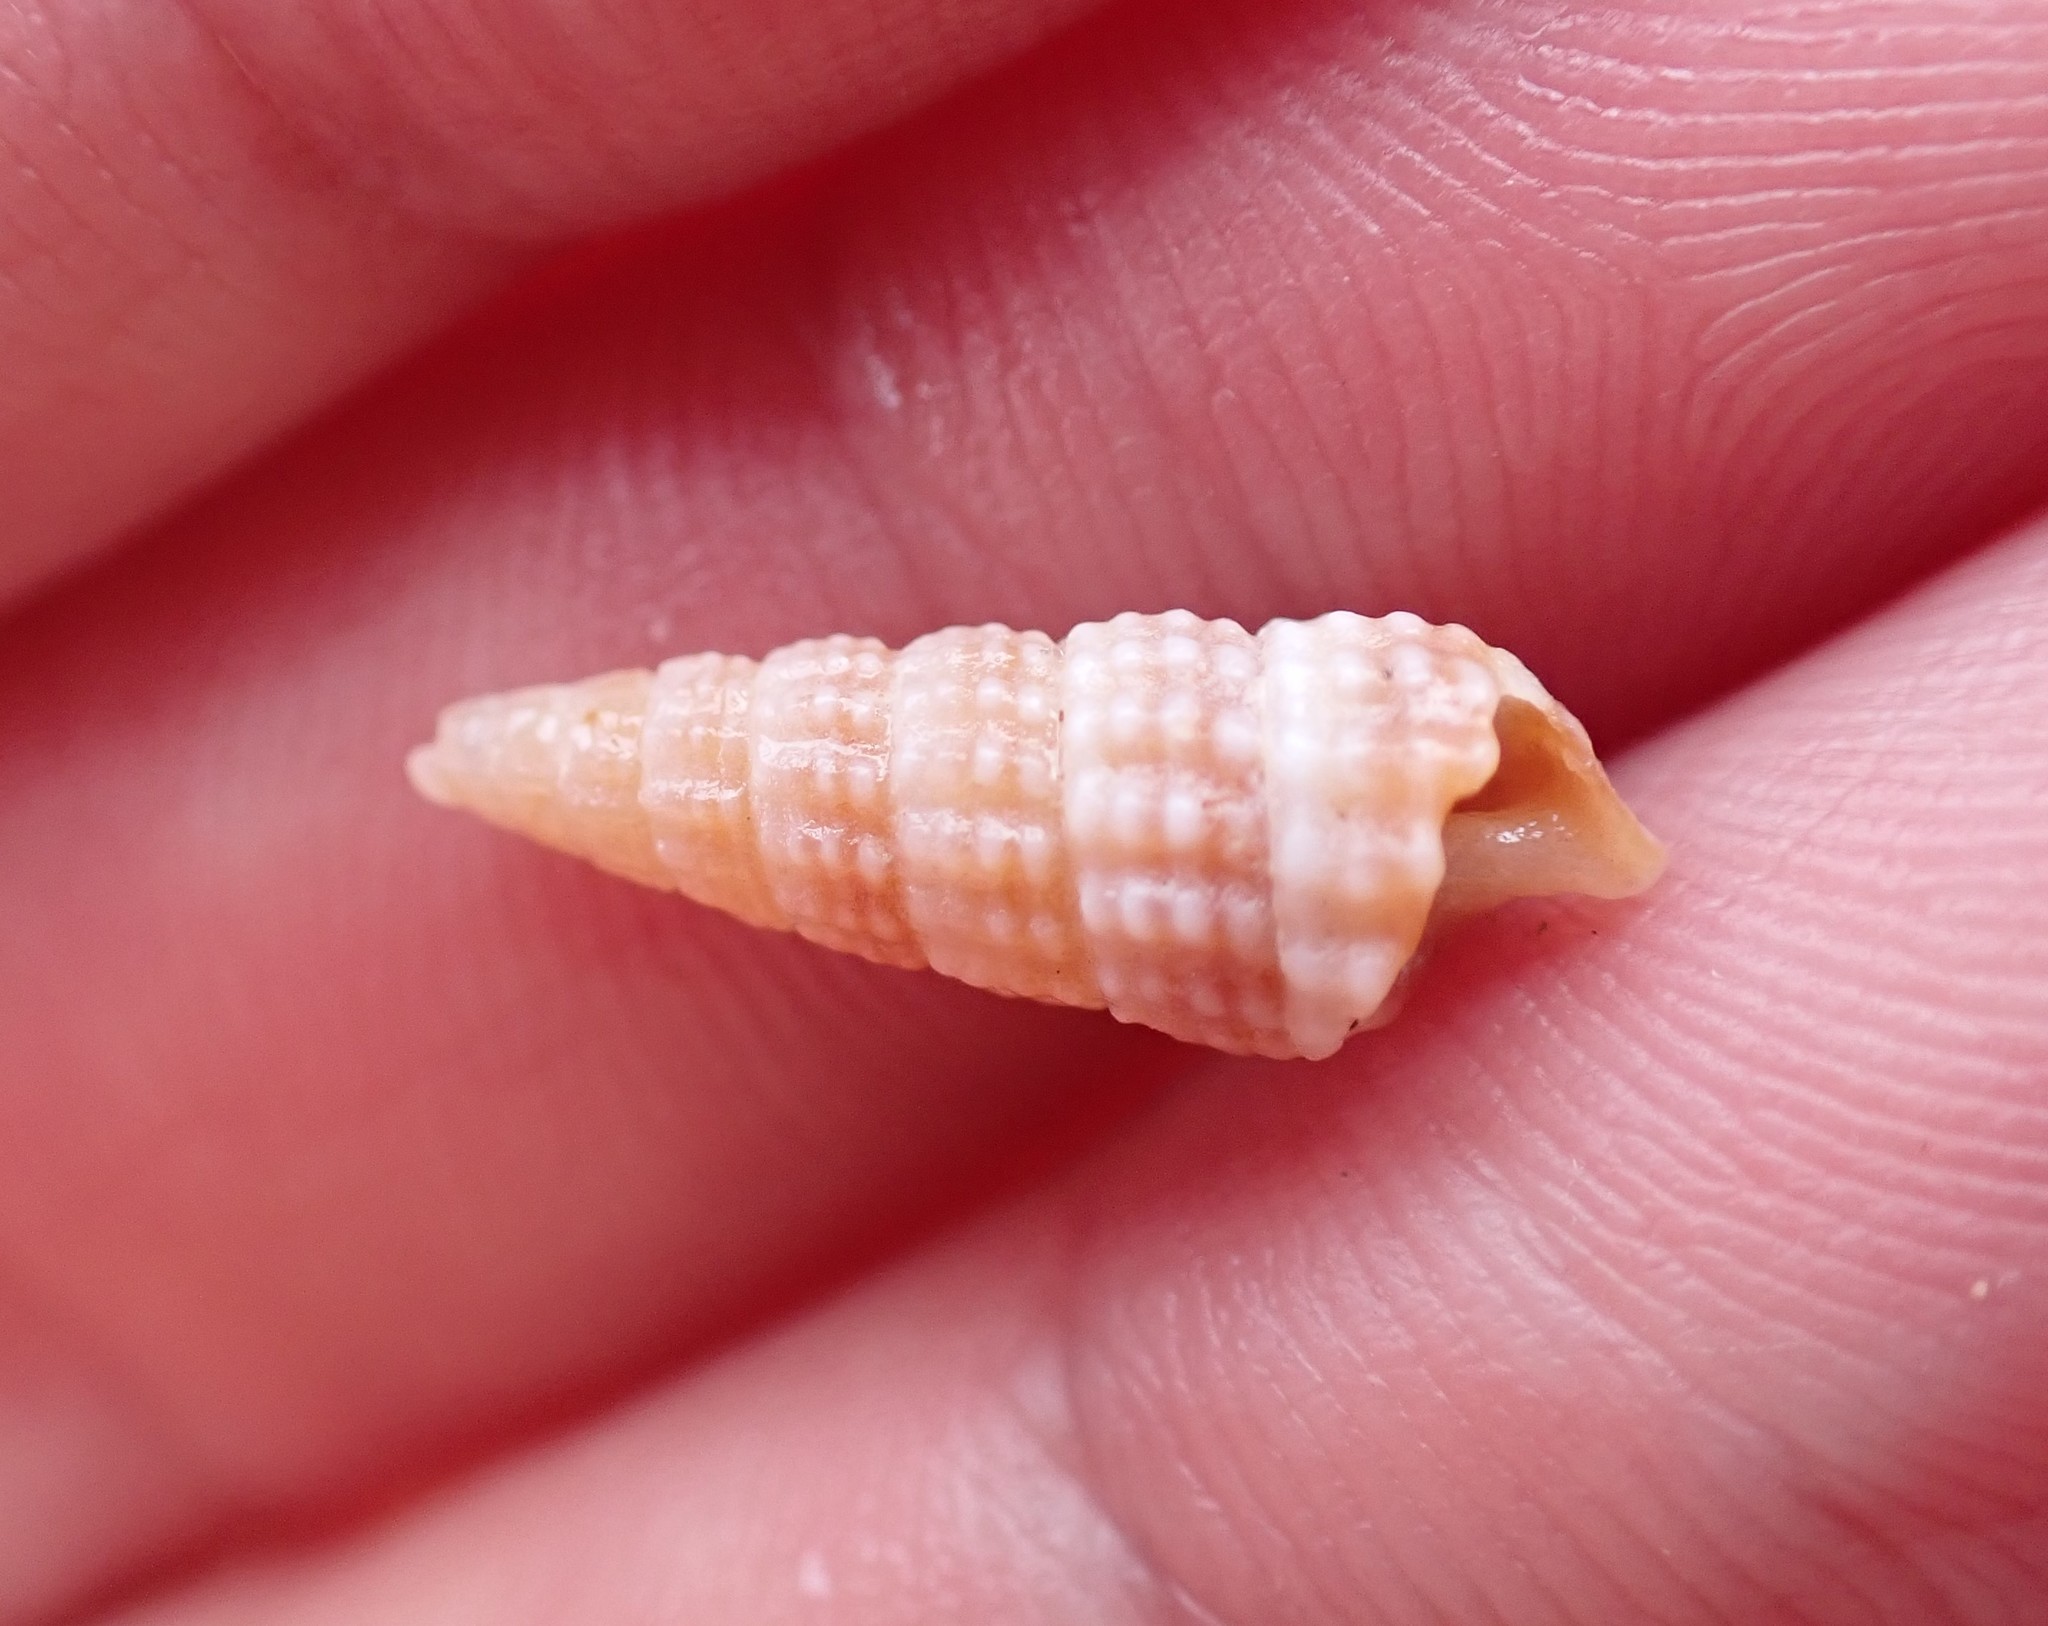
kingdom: Animalia
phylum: Mollusca
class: Gastropoda
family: Cerithiidae
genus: Cacozeliana
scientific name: Cacozeliana granarium
